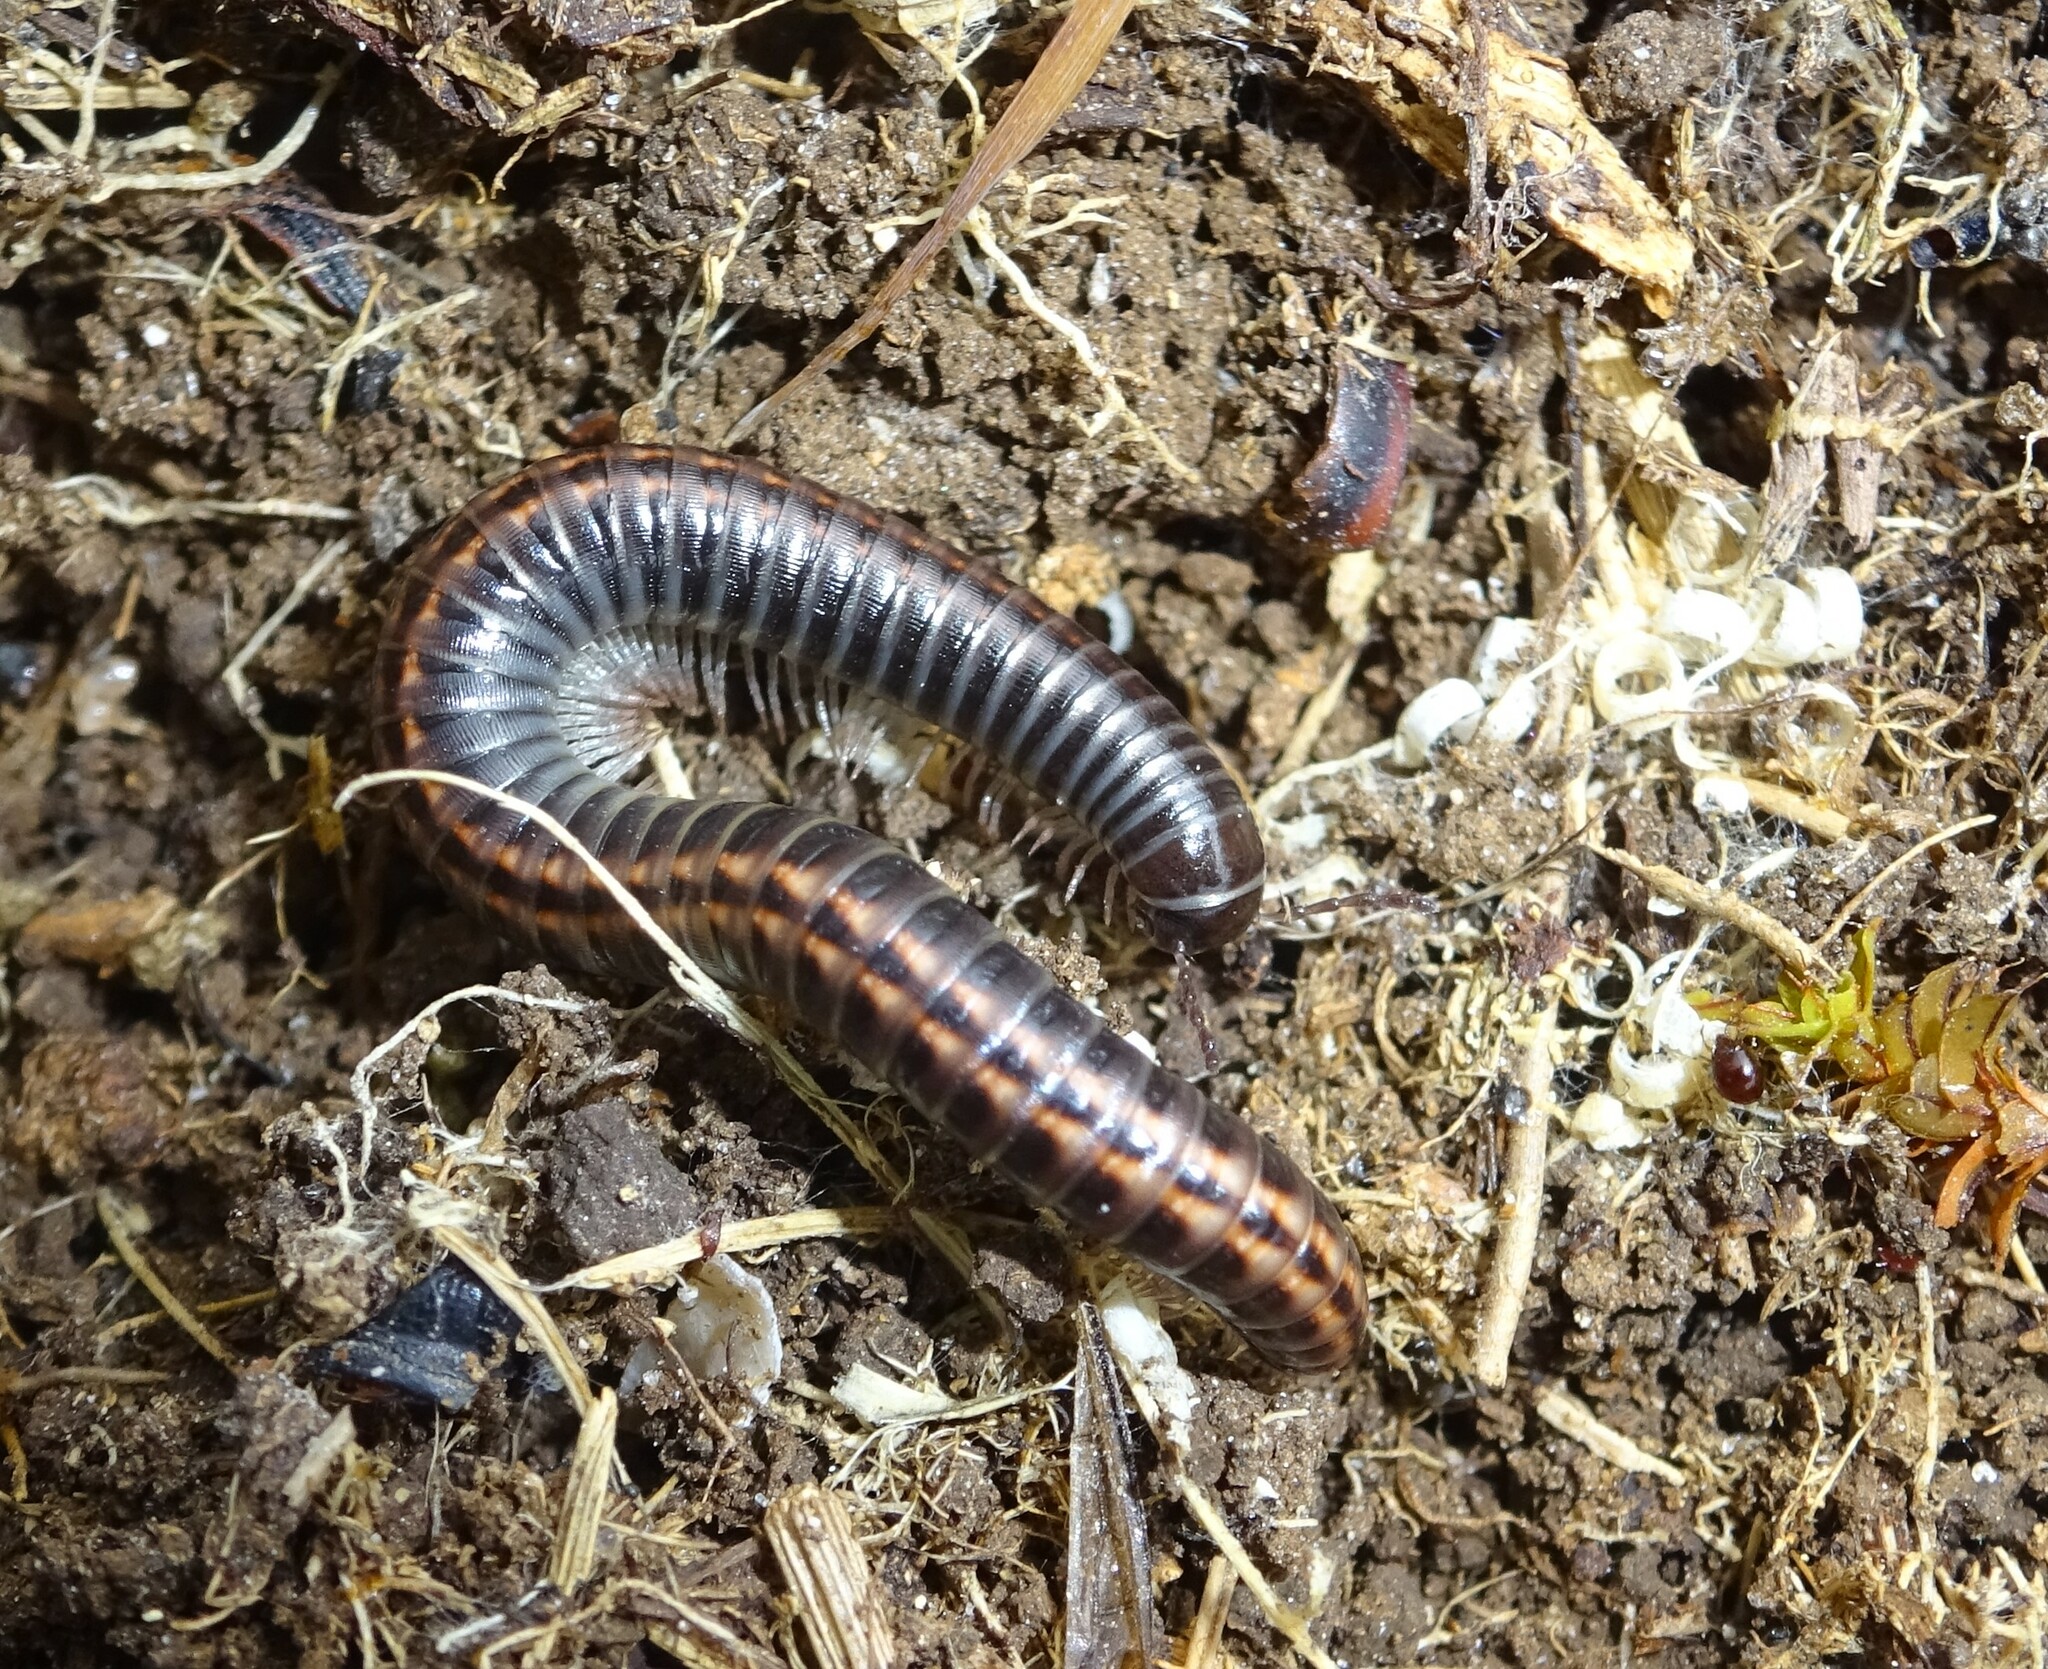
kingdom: Animalia
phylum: Arthropoda
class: Diplopoda
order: Julida
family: Julidae
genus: Ommatoiulus
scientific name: Ommatoiulus sabulosus
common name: Striped millipede
